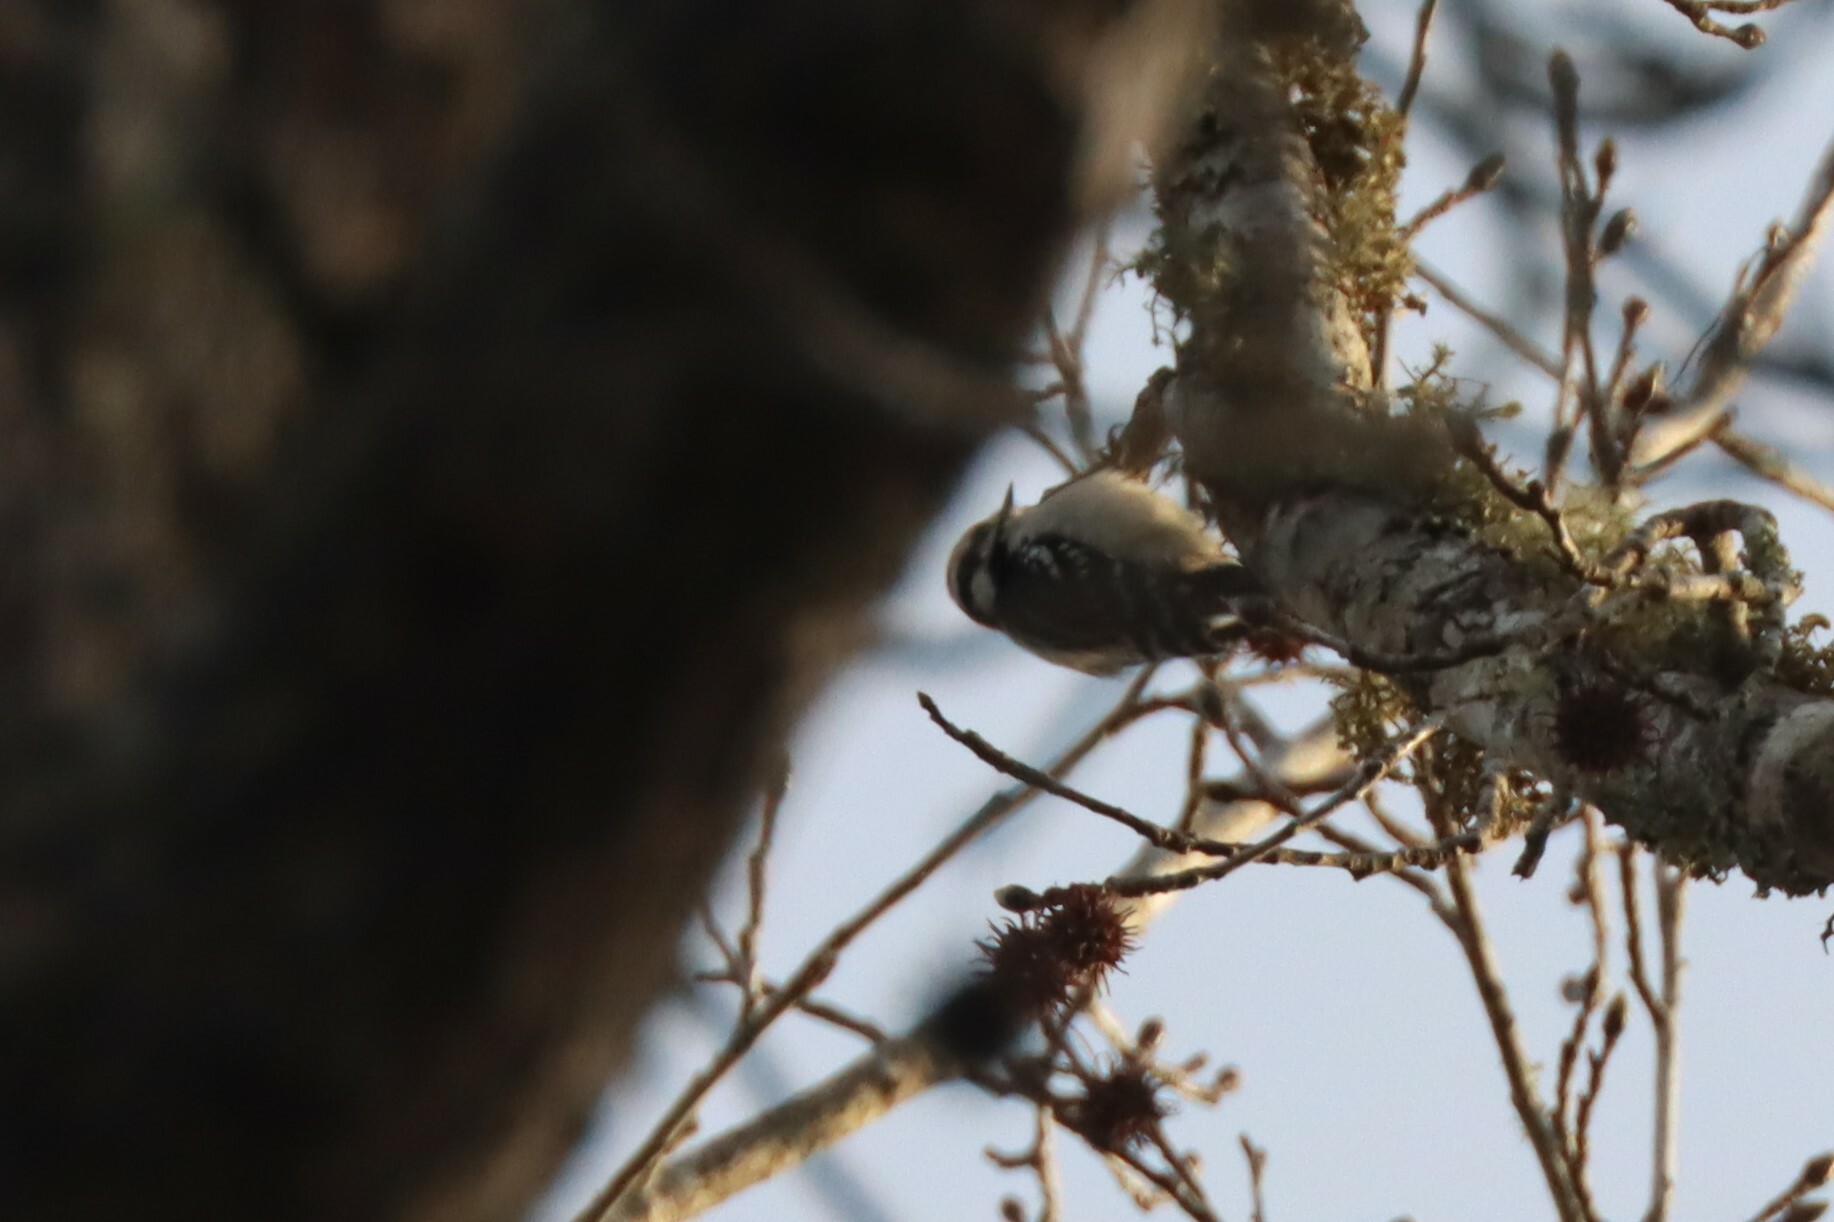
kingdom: Animalia
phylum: Chordata
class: Aves
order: Piciformes
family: Picidae
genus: Dryobates
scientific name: Dryobates pubescens
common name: Downy woodpecker
